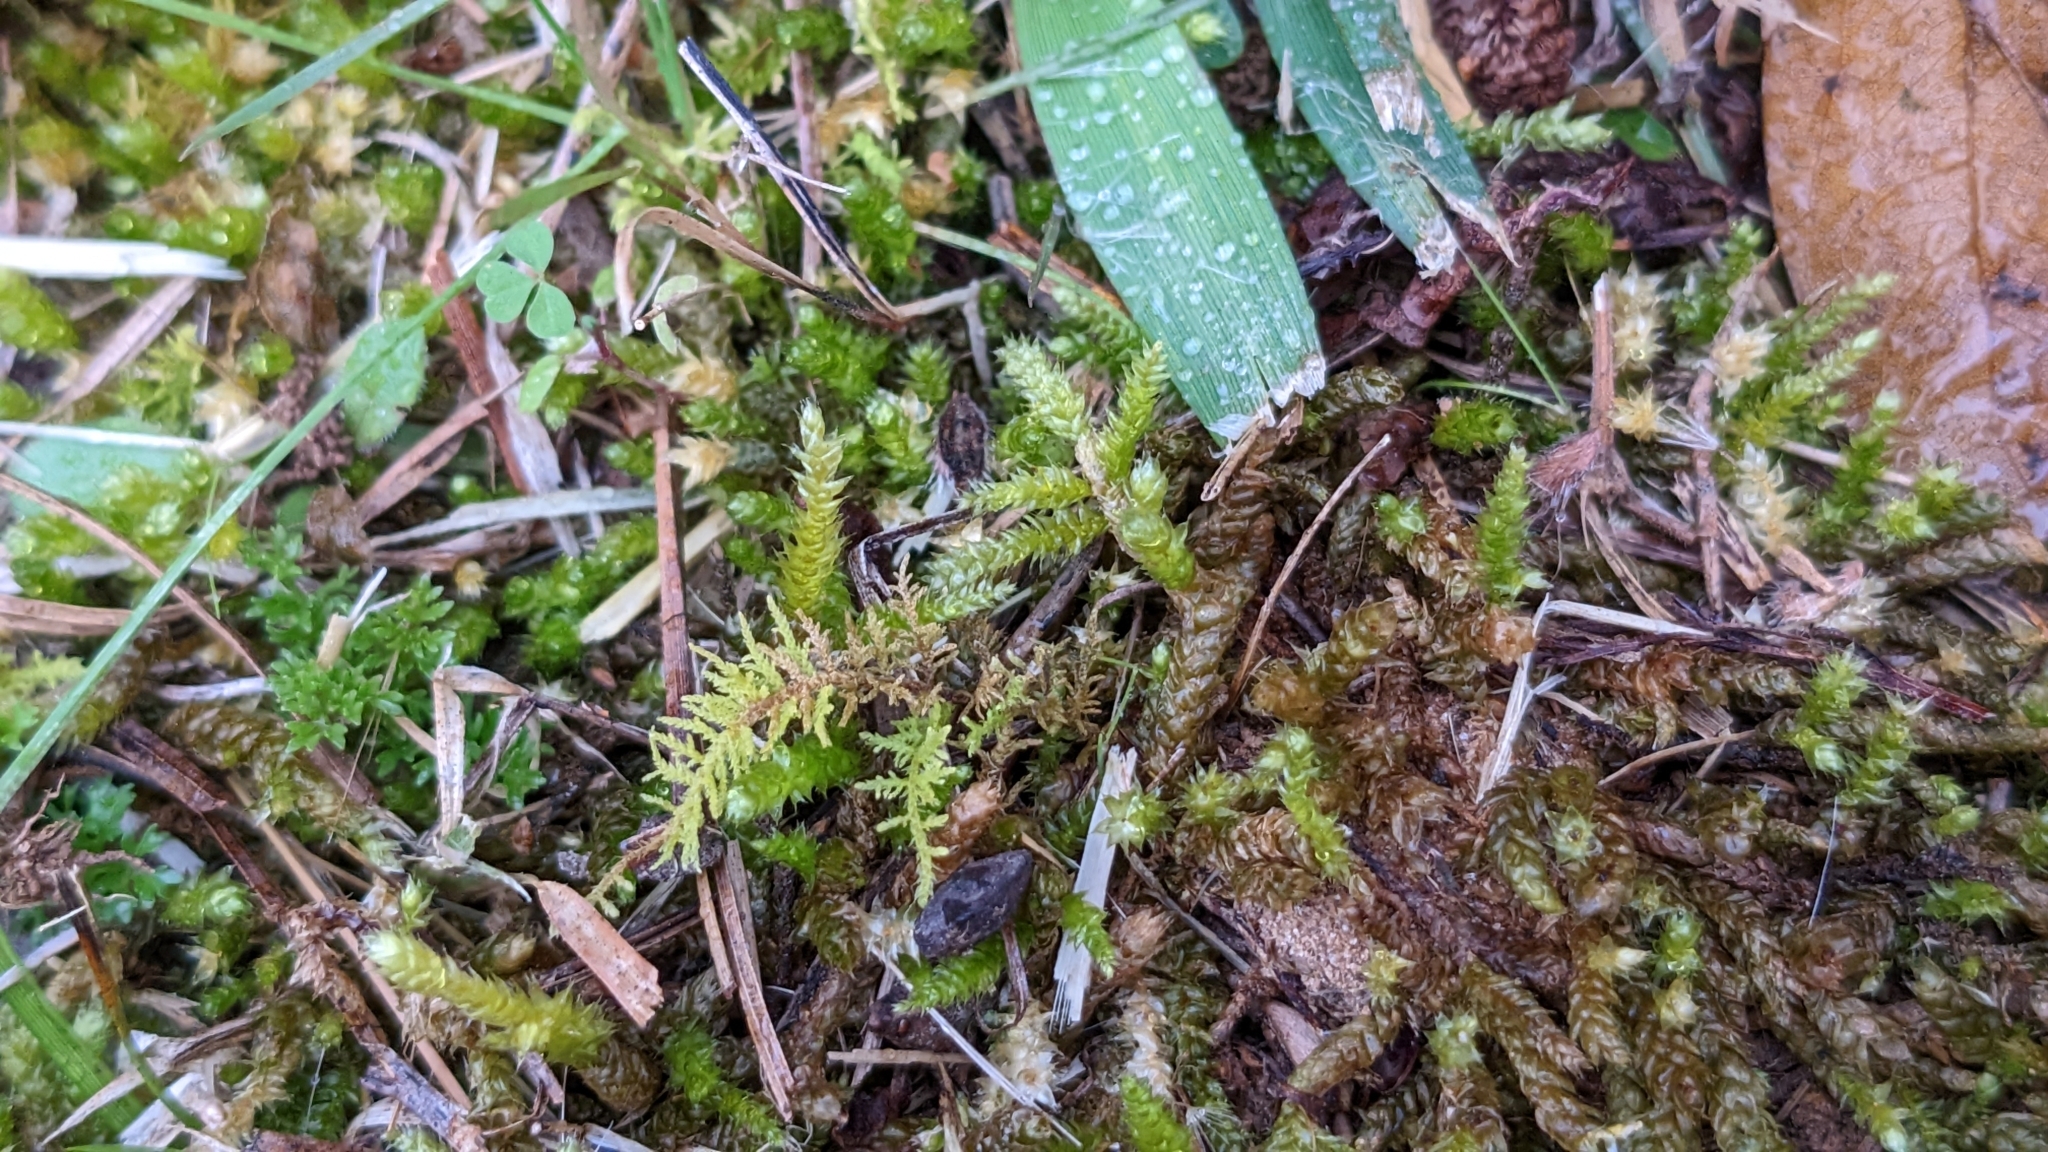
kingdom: Plantae
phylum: Bryophyta
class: Bryopsida
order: Hypnales
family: Brachytheciaceae
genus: Bryoandersonia
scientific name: Bryoandersonia illecebra
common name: Spoon-leaved moss
